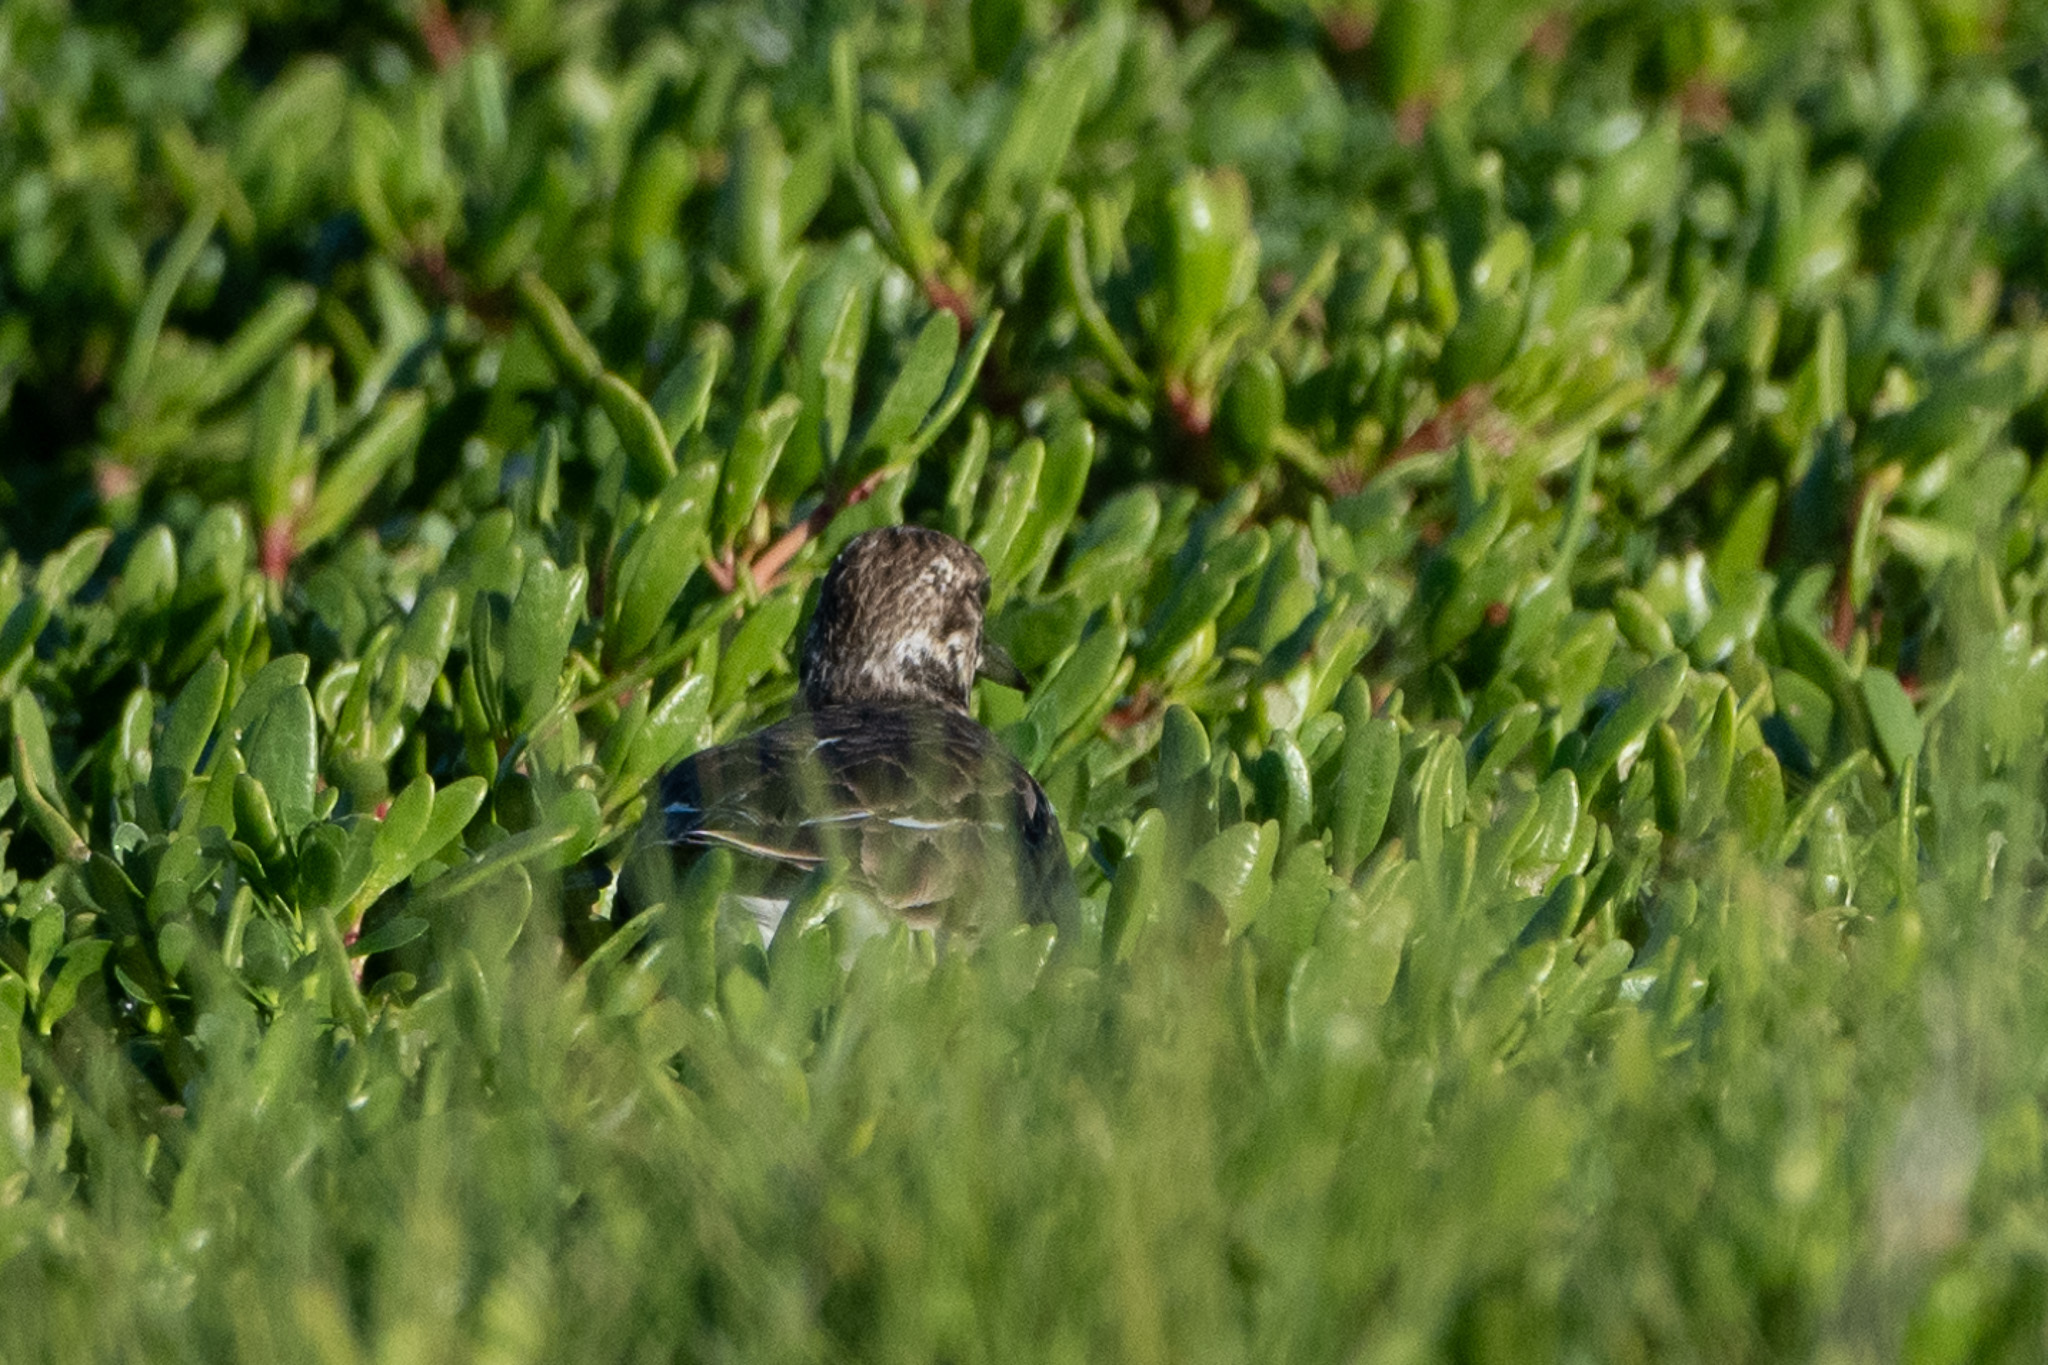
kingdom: Animalia
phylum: Chordata
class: Aves
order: Charadriiformes
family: Scolopacidae
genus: Arenaria
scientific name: Arenaria interpres
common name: Ruddy turnstone
